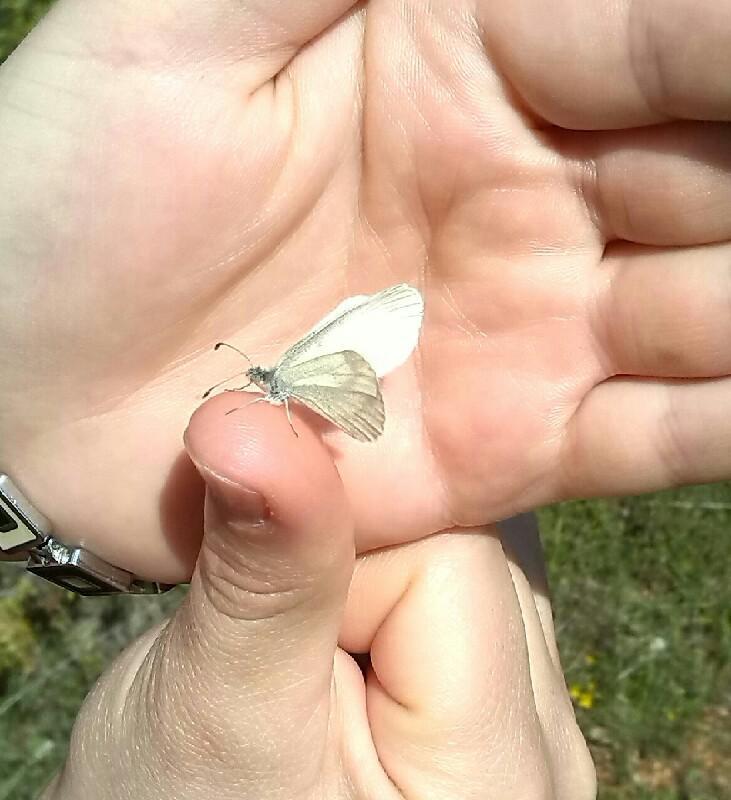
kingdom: Animalia
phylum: Arthropoda
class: Insecta
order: Lepidoptera
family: Pieridae
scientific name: Pieridae
